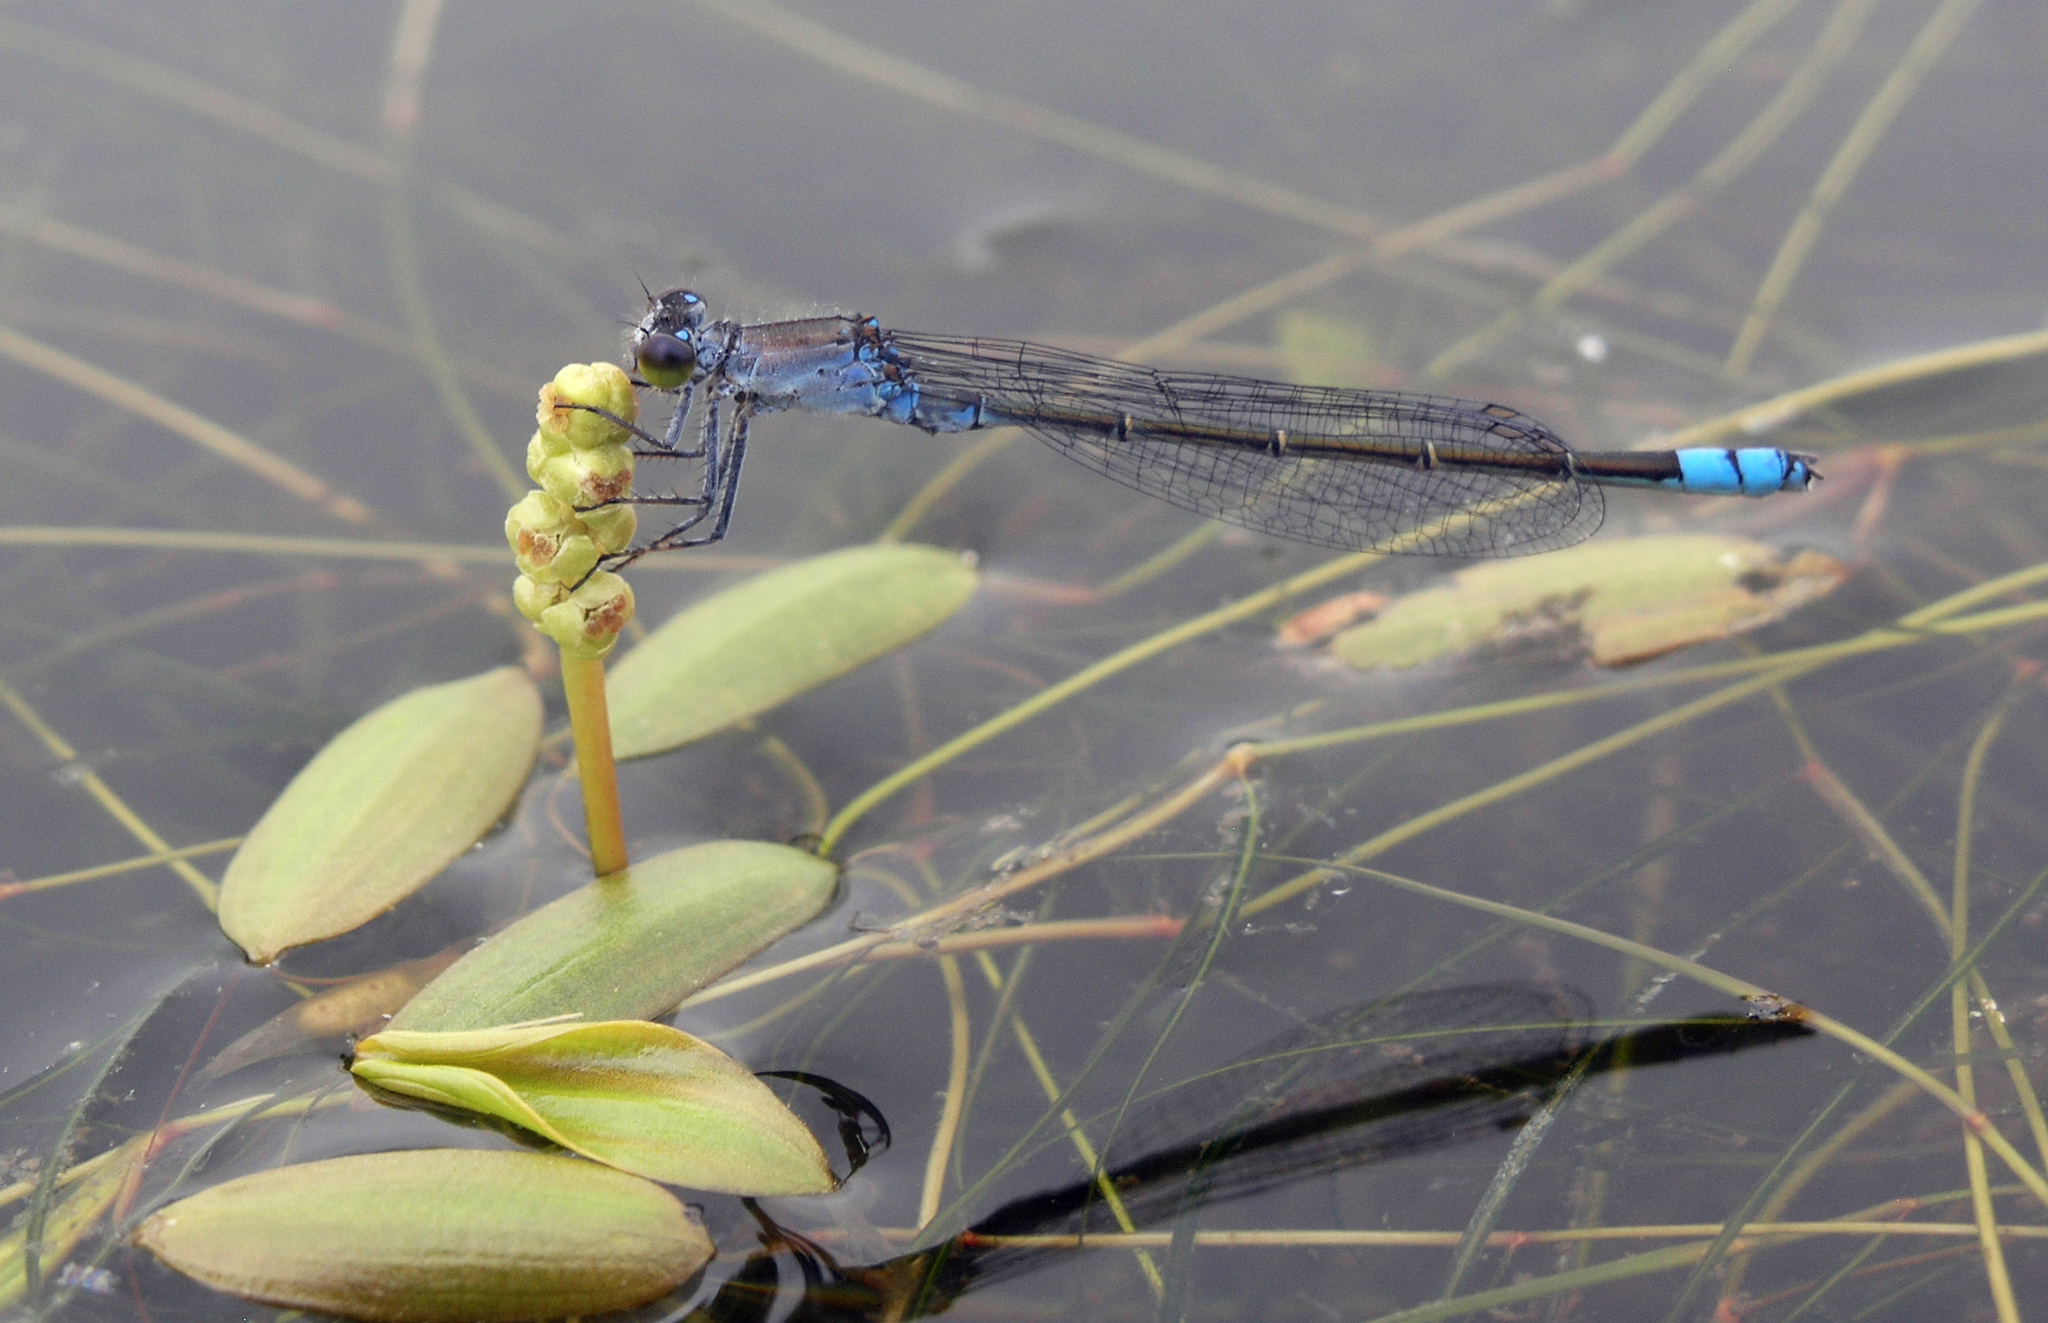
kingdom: Animalia
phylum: Arthropoda
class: Insecta
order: Odonata
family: Coenagrionidae
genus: Paracercion
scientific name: Paracercion calamorum
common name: Dusky lilysquatter
